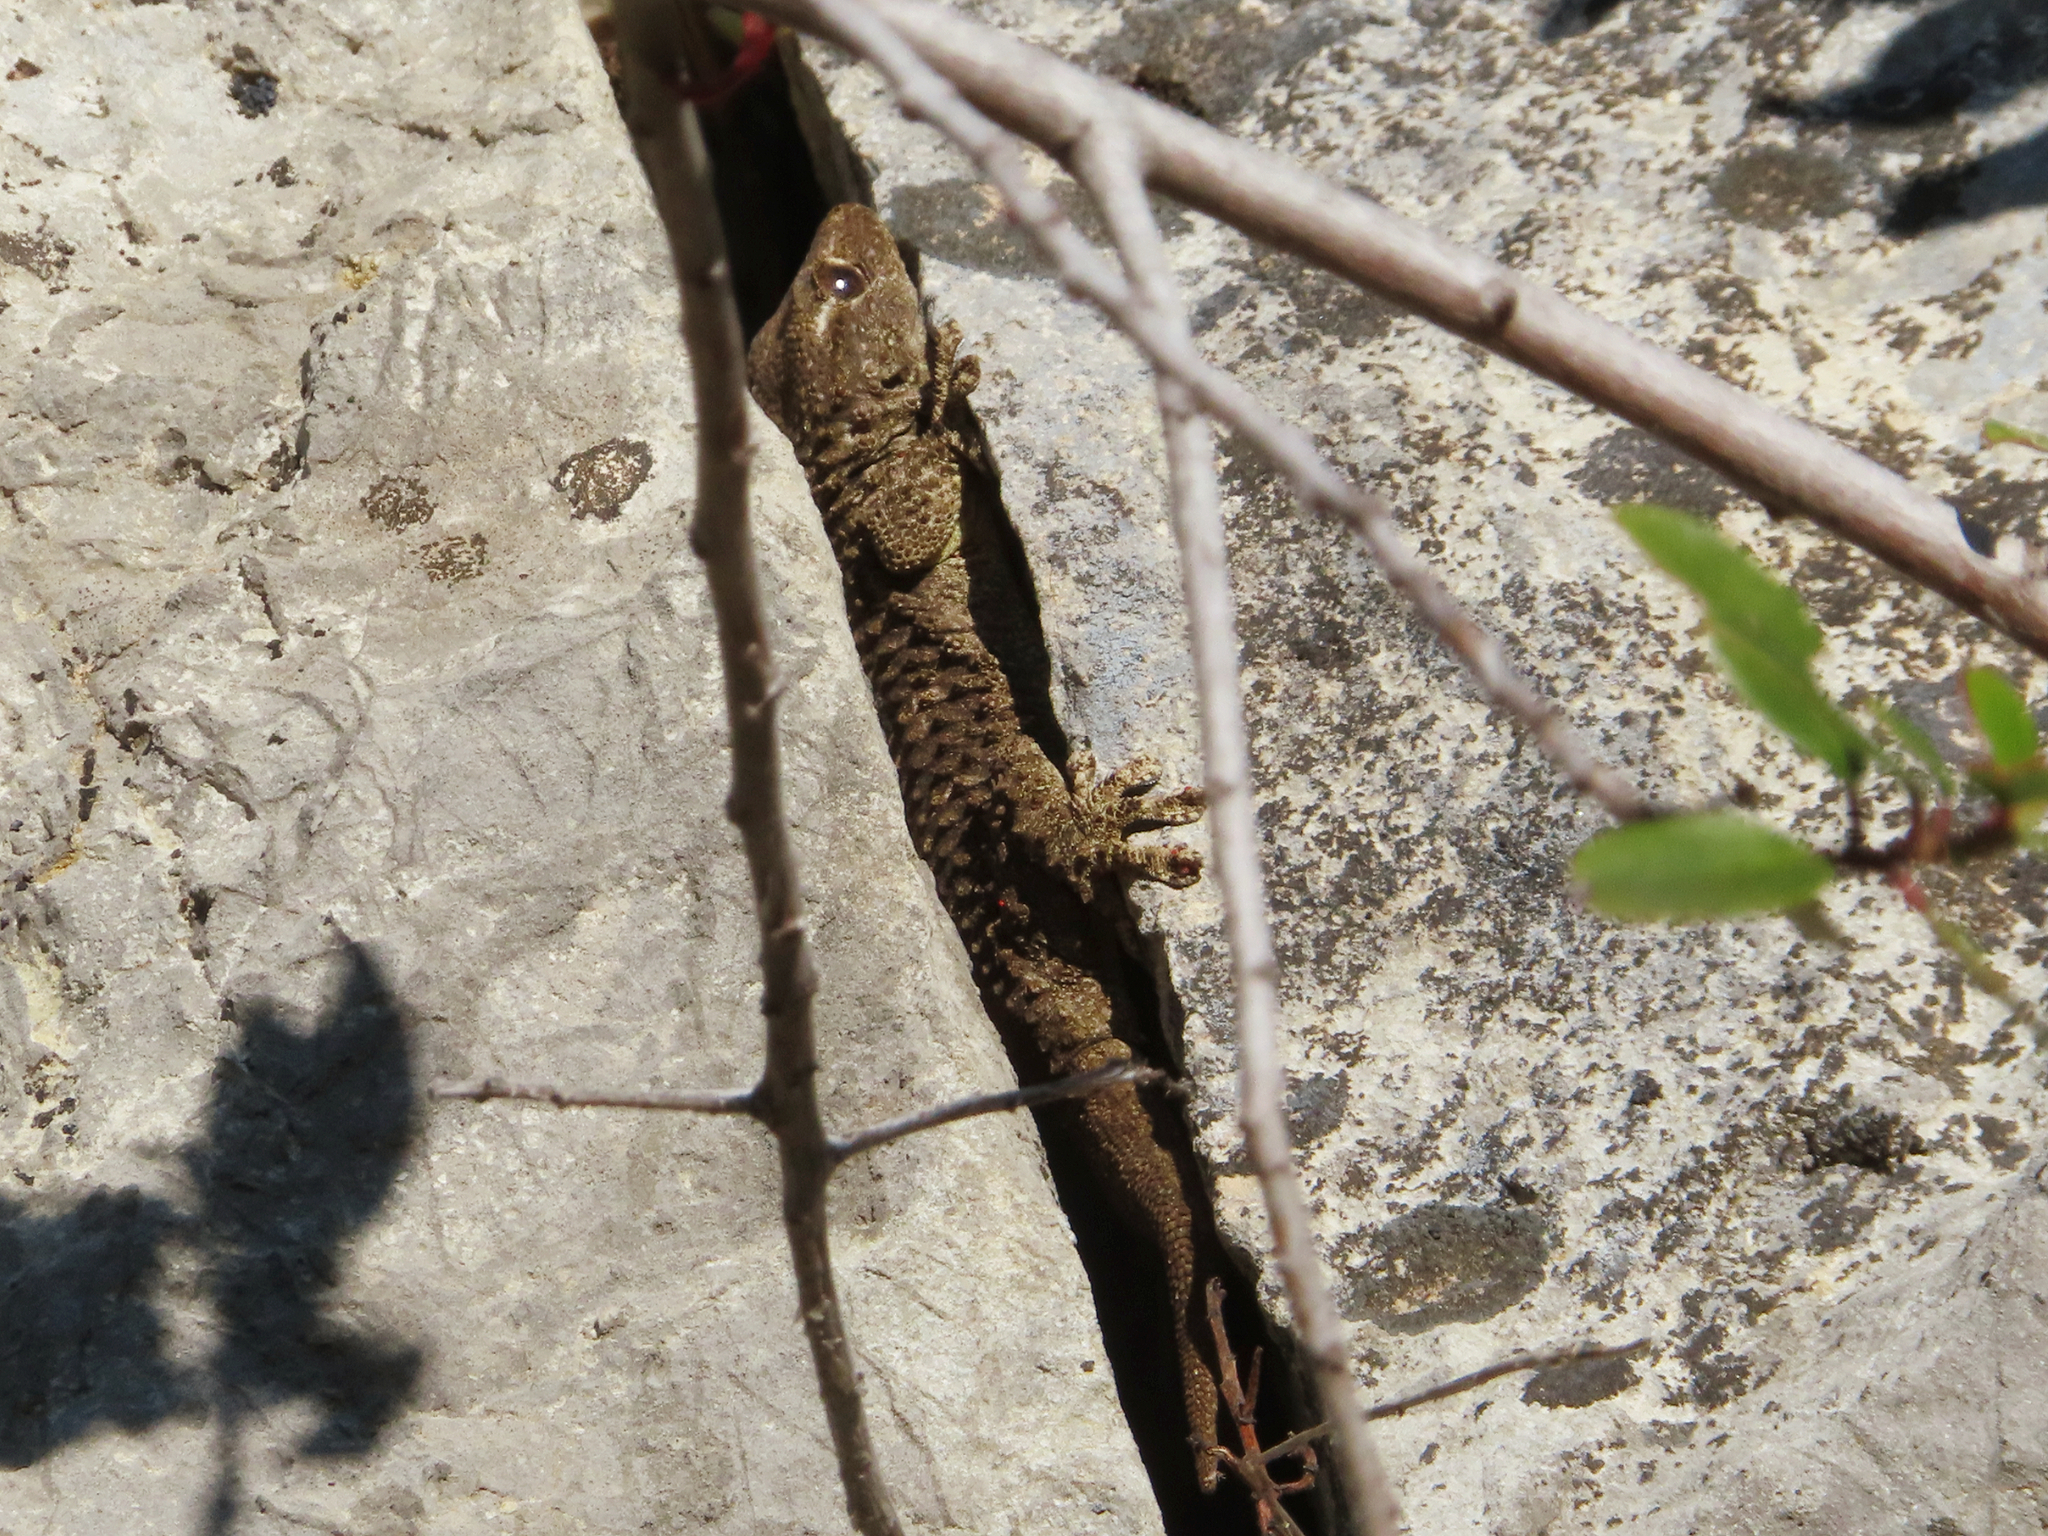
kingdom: Animalia
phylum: Chordata
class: Squamata
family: Phyllodactylidae
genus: Tarentola
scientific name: Tarentola mauritanica
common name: Moorish gecko
